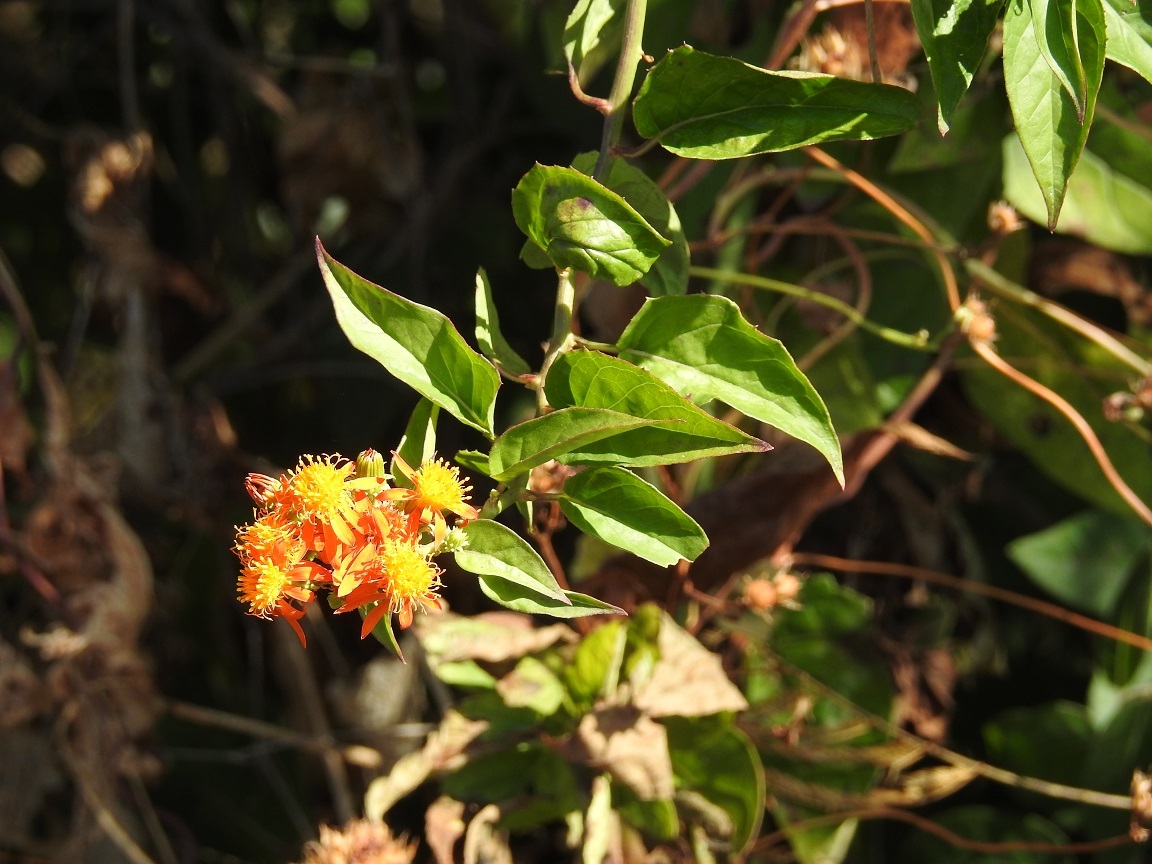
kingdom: Plantae
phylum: Tracheophyta
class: Magnoliopsida
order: Asterales
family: Asteraceae
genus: Pseudogynoxys
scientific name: Pseudogynoxys haenkei
